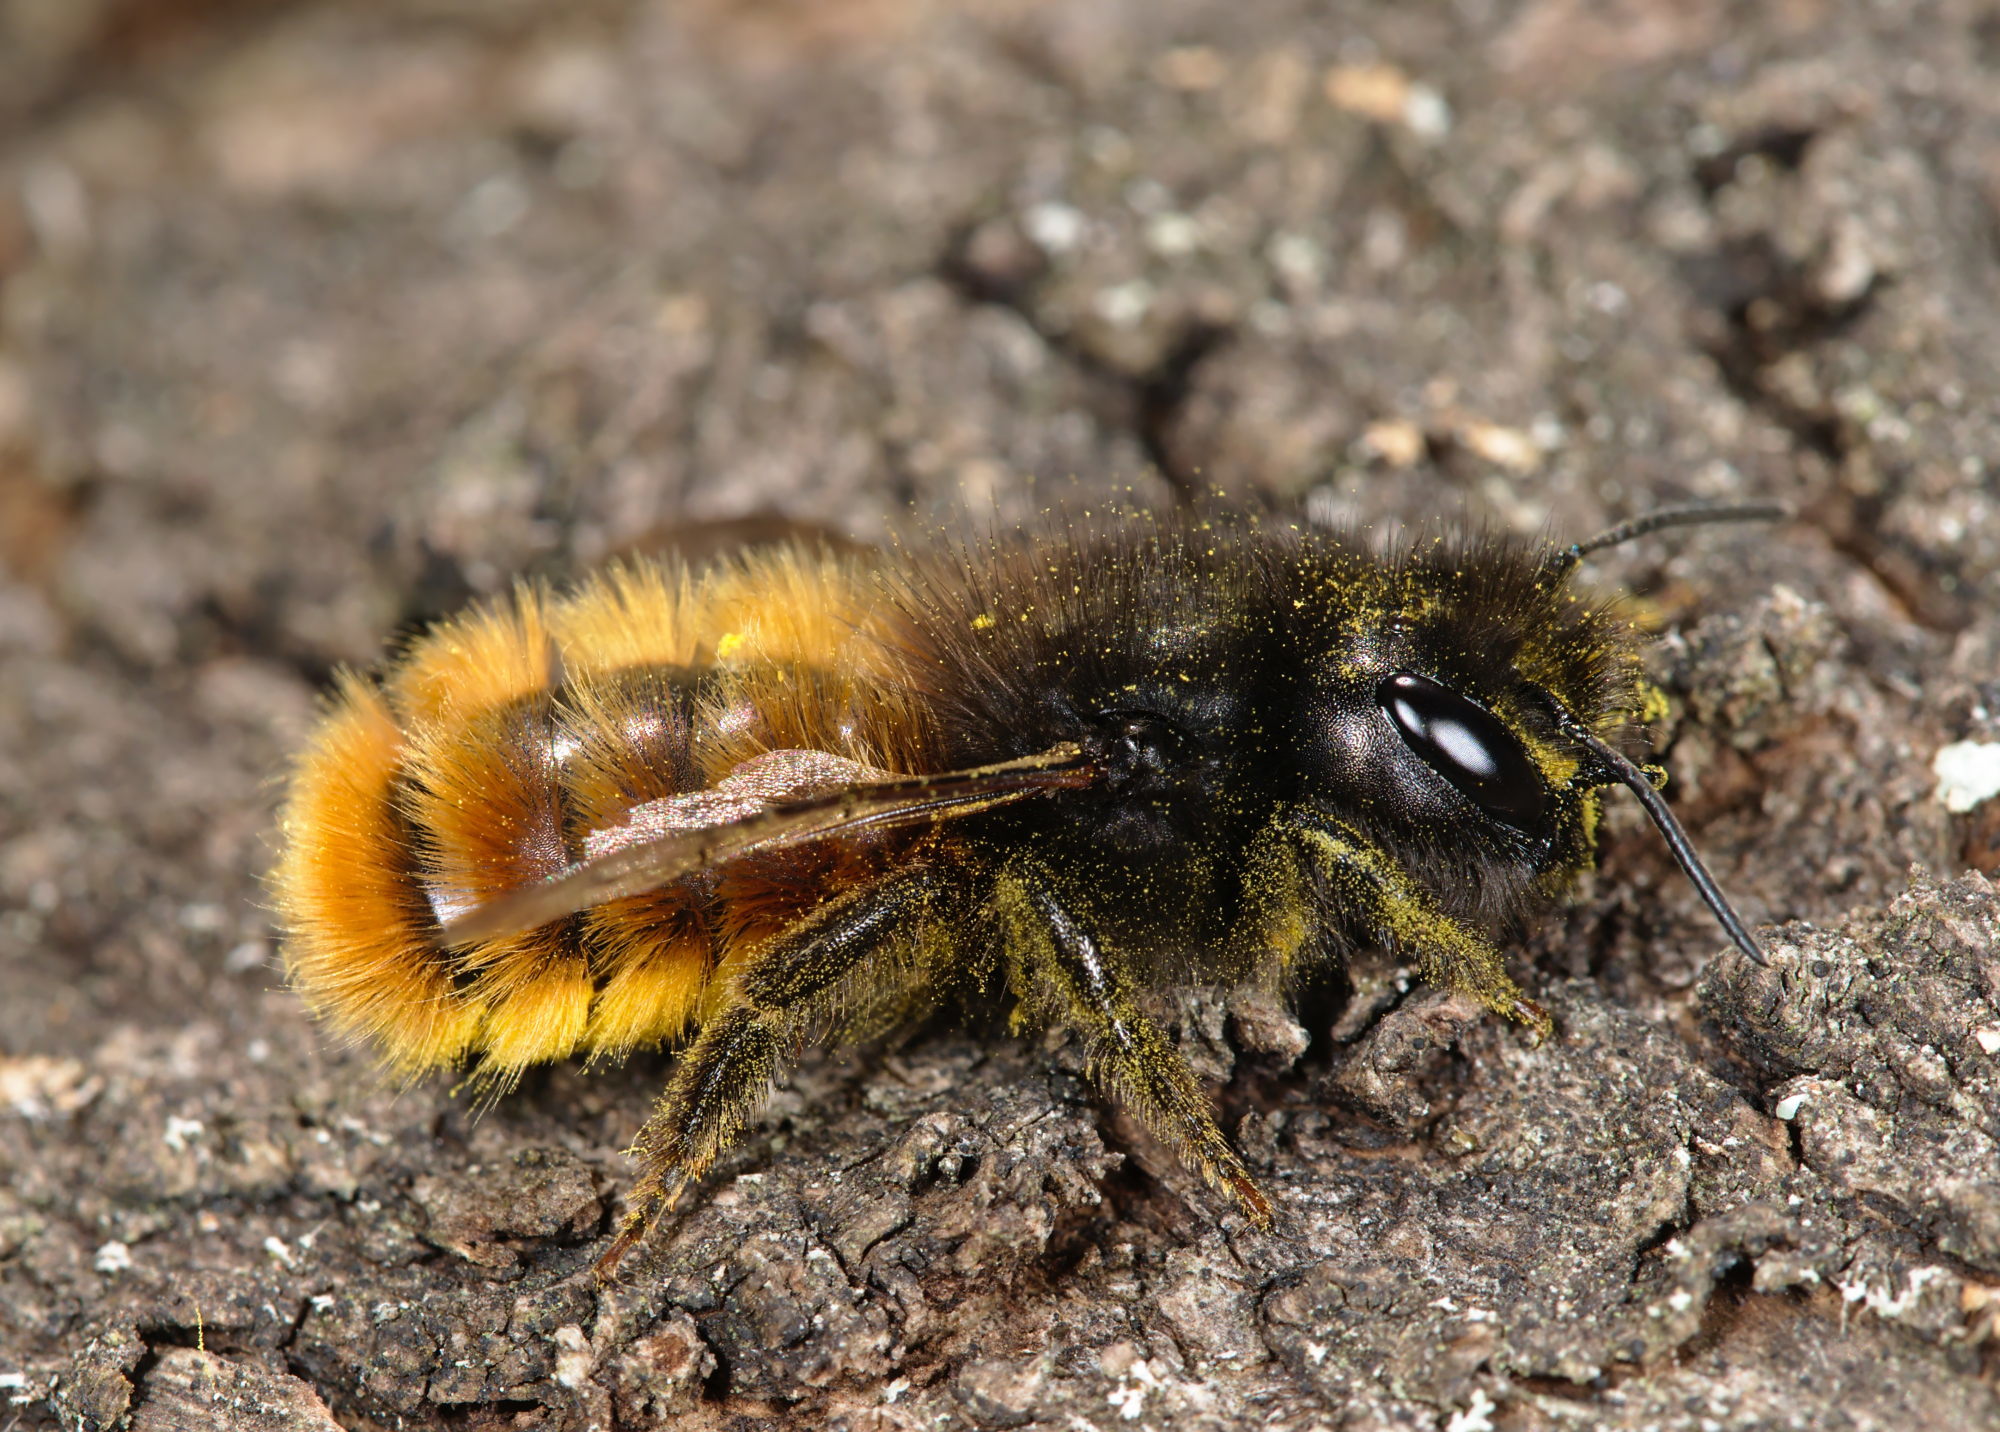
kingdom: Animalia
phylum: Arthropoda
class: Insecta
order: Hymenoptera
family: Megachilidae
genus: Osmia
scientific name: Osmia cornuta
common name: Mason bee
